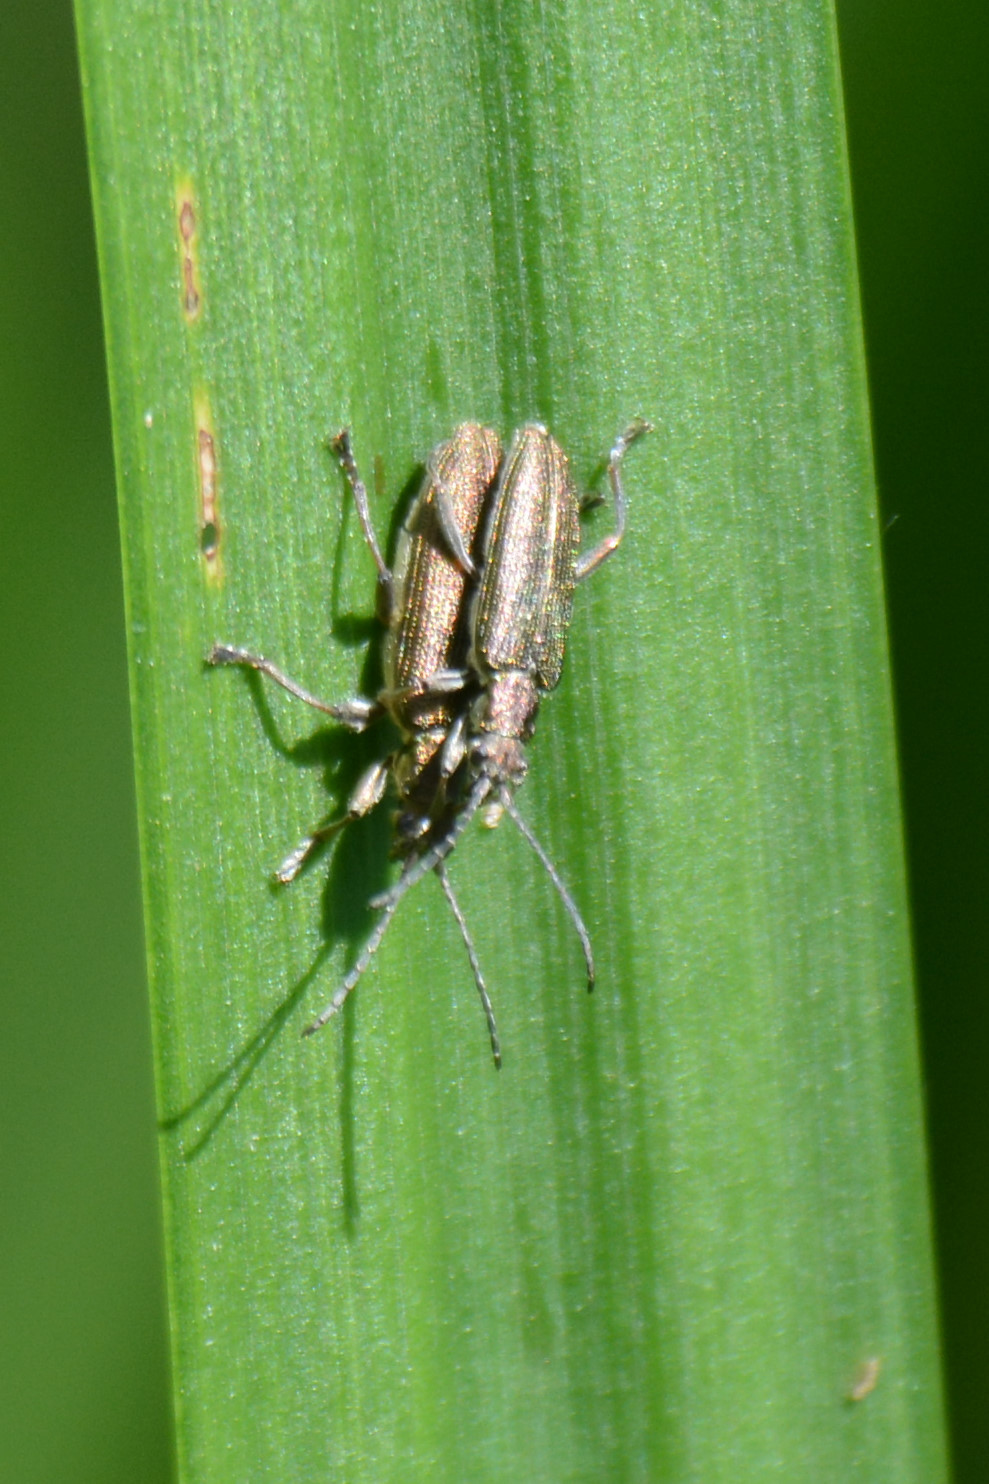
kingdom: Animalia
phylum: Arthropoda
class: Insecta
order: Coleoptera
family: Chrysomelidae
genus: Donacia
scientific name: Donacia simplex
